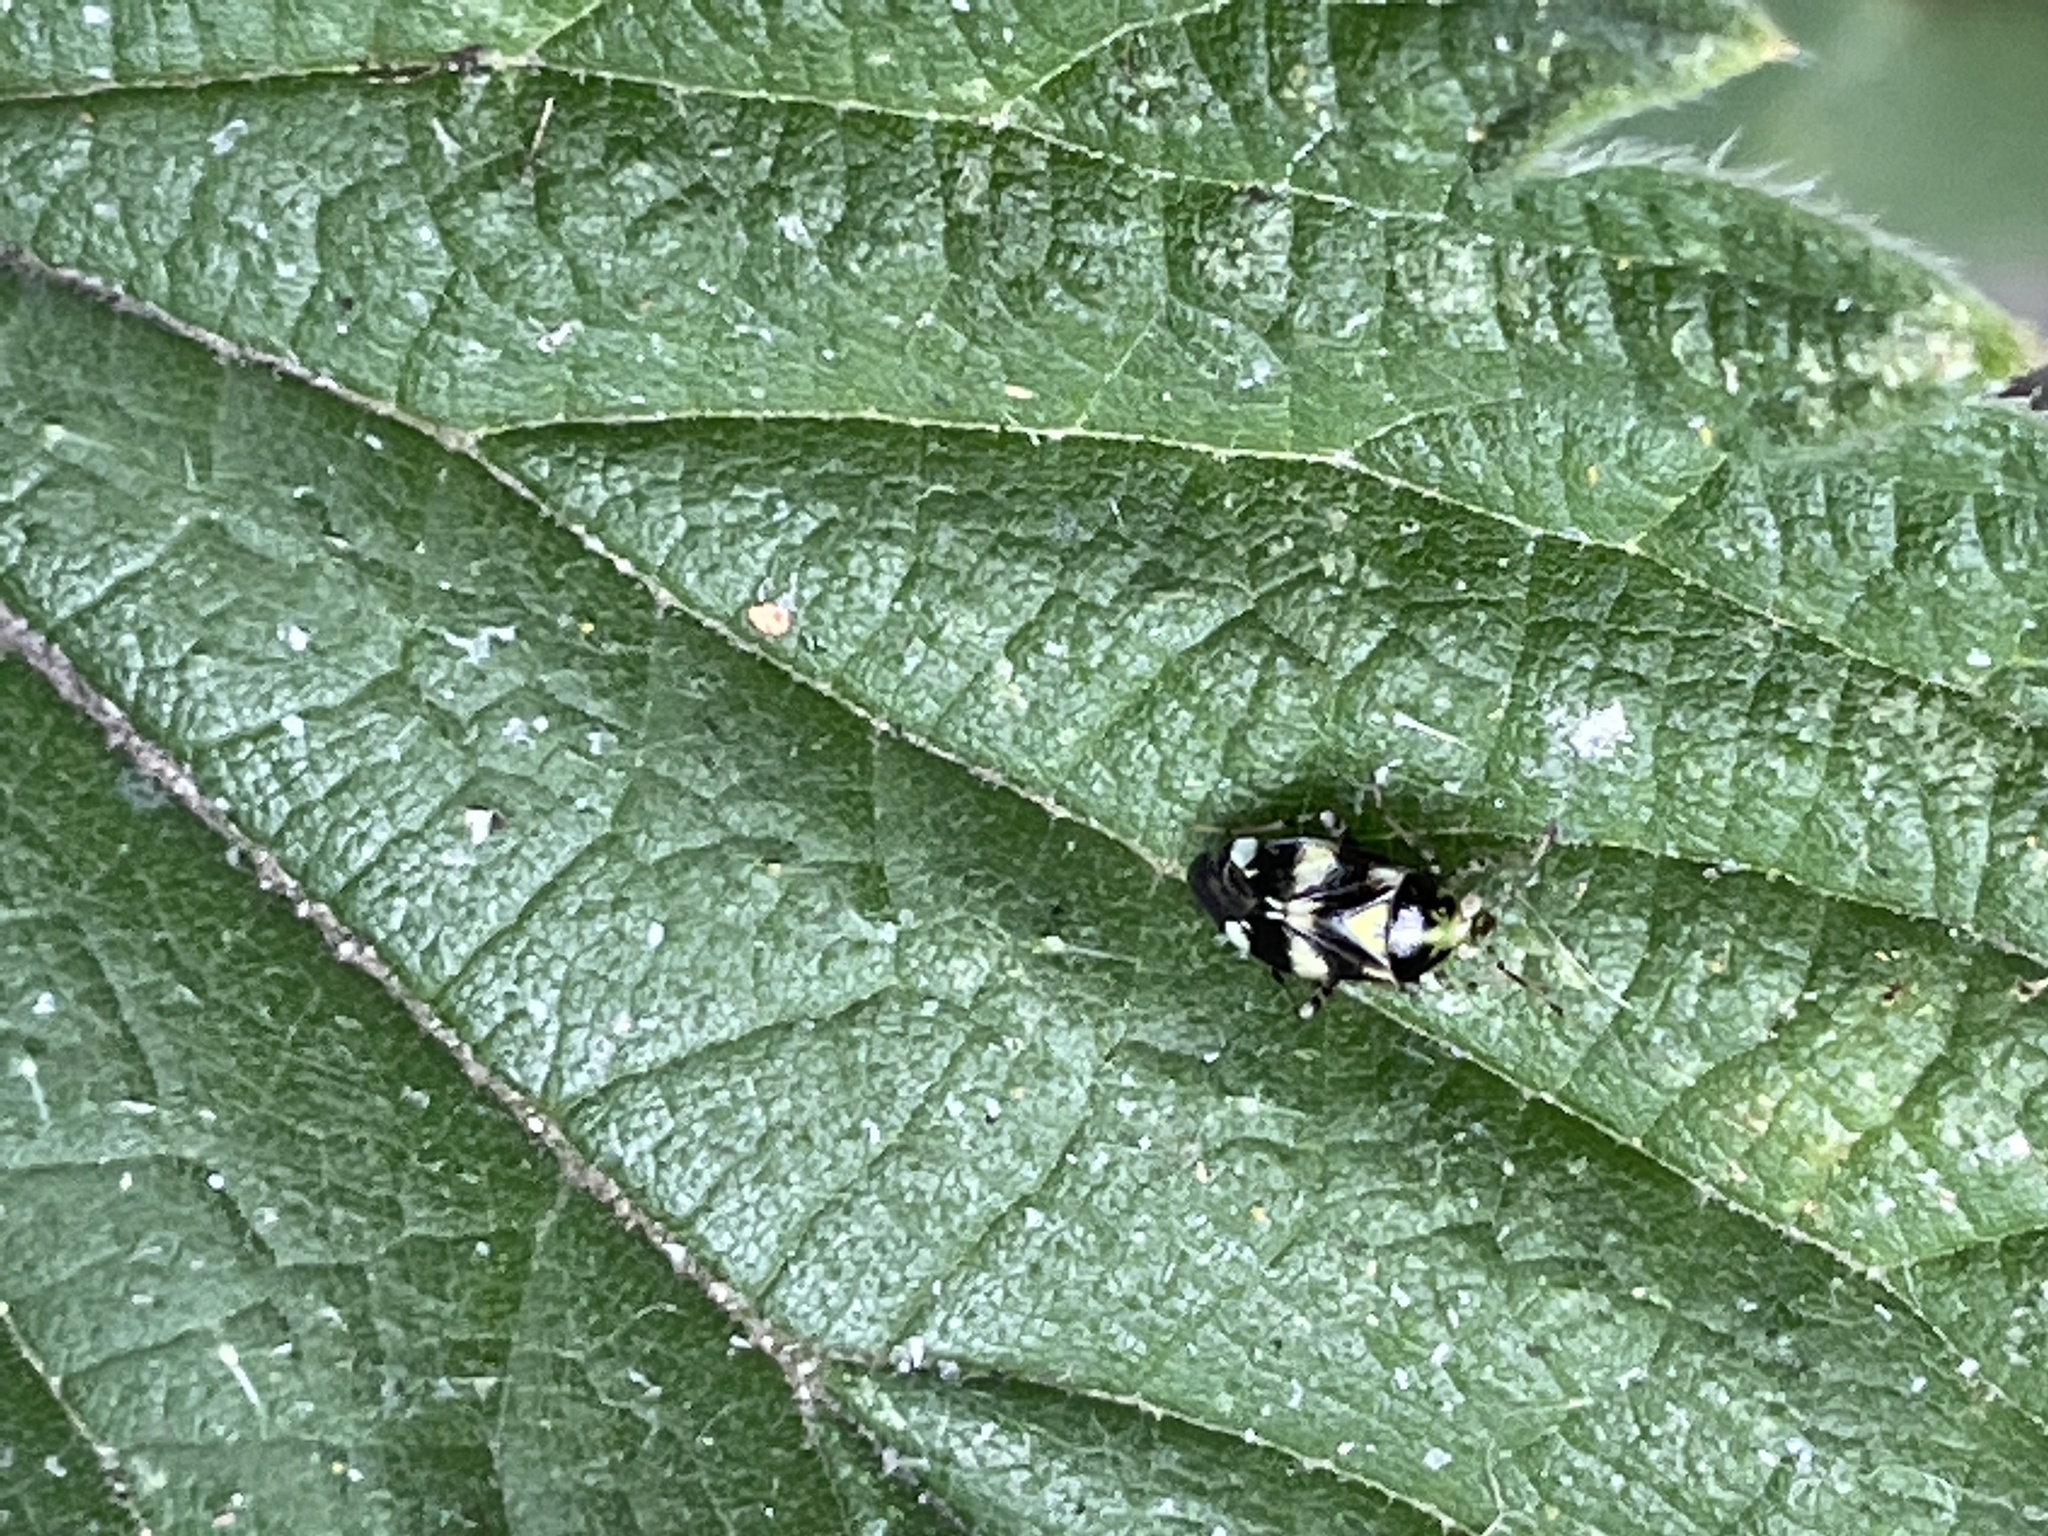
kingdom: Animalia
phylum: Arthropoda
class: Insecta
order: Hemiptera
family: Miridae
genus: Liocoris
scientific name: Liocoris tripustulatus
